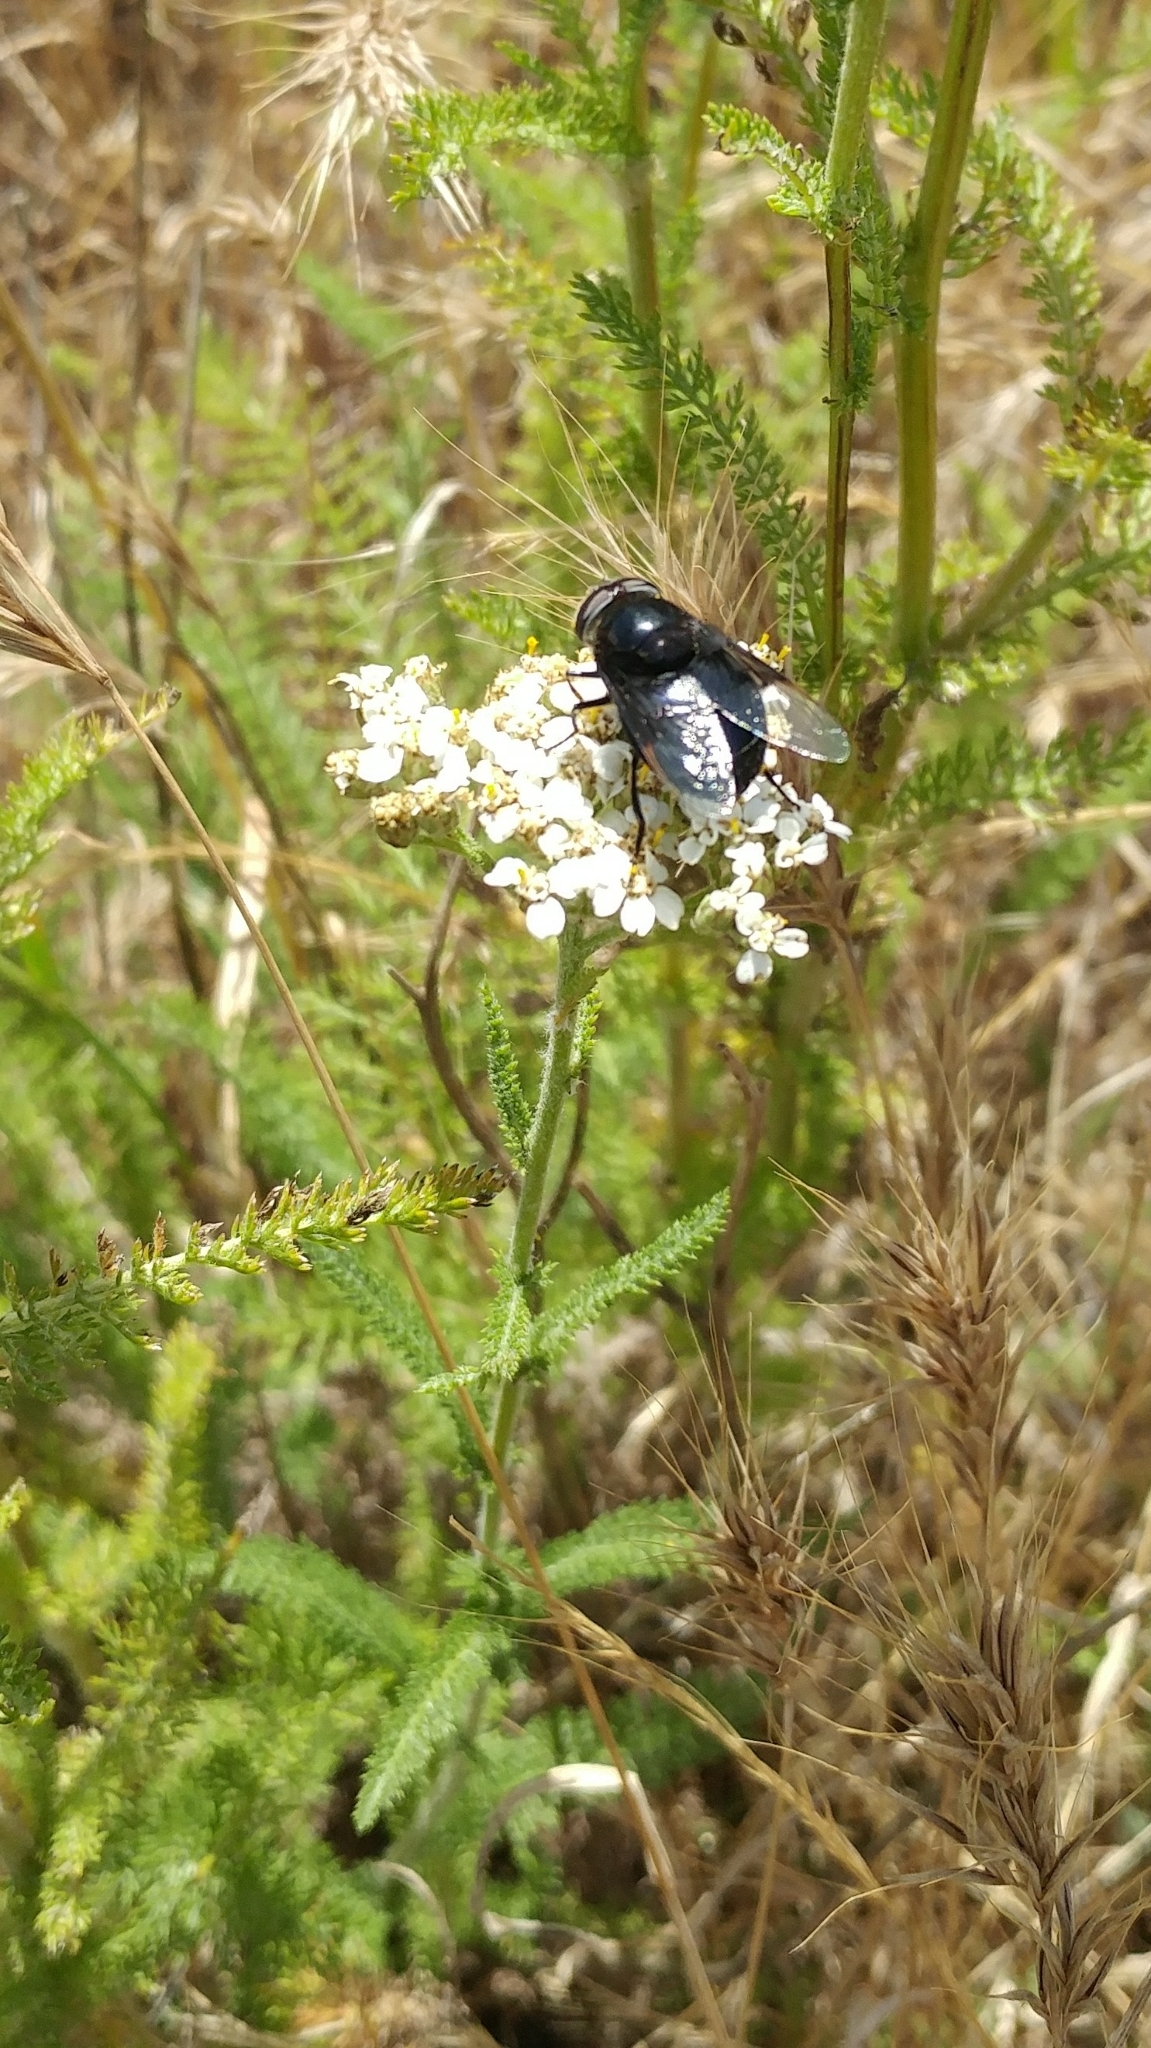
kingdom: Animalia
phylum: Arthropoda
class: Insecta
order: Diptera
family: Syrphidae
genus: Copestylum
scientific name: Copestylum mexicanum
